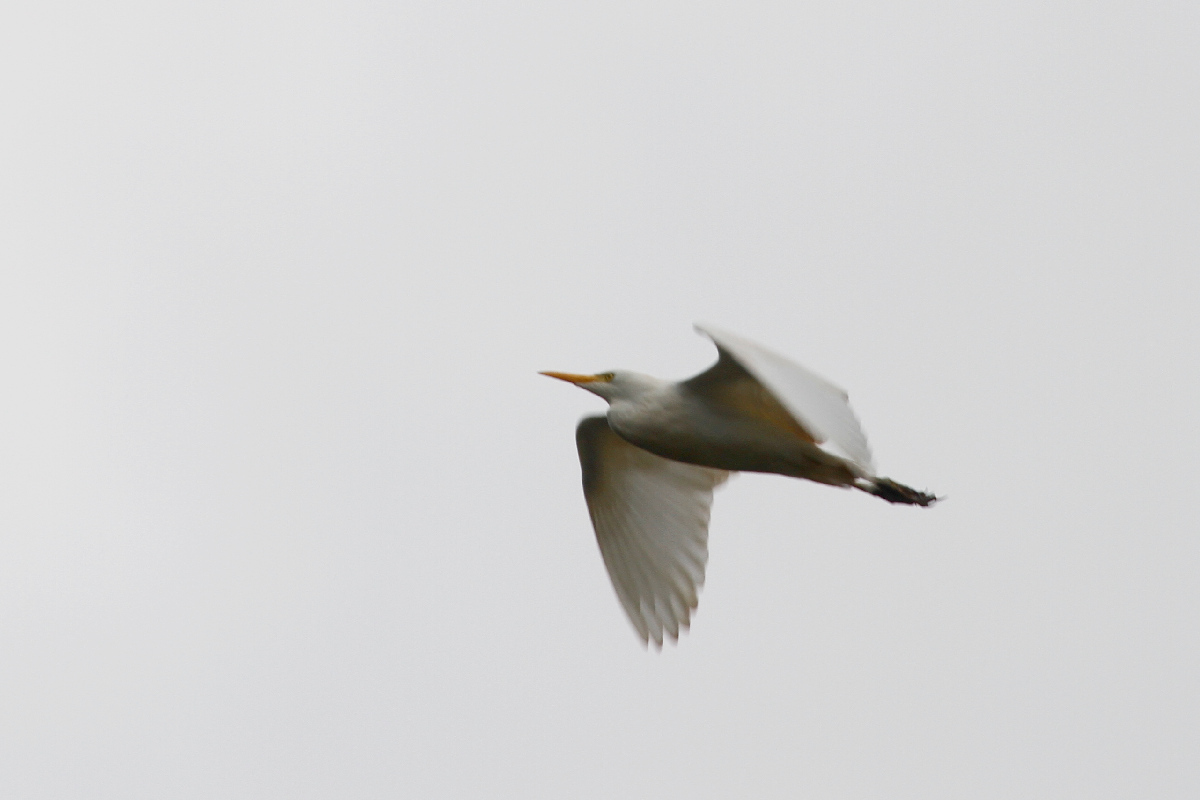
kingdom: Animalia
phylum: Chordata
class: Aves
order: Pelecaniformes
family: Ardeidae
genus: Bubulcus
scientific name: Bubulcus ibis
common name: Cattle egret
